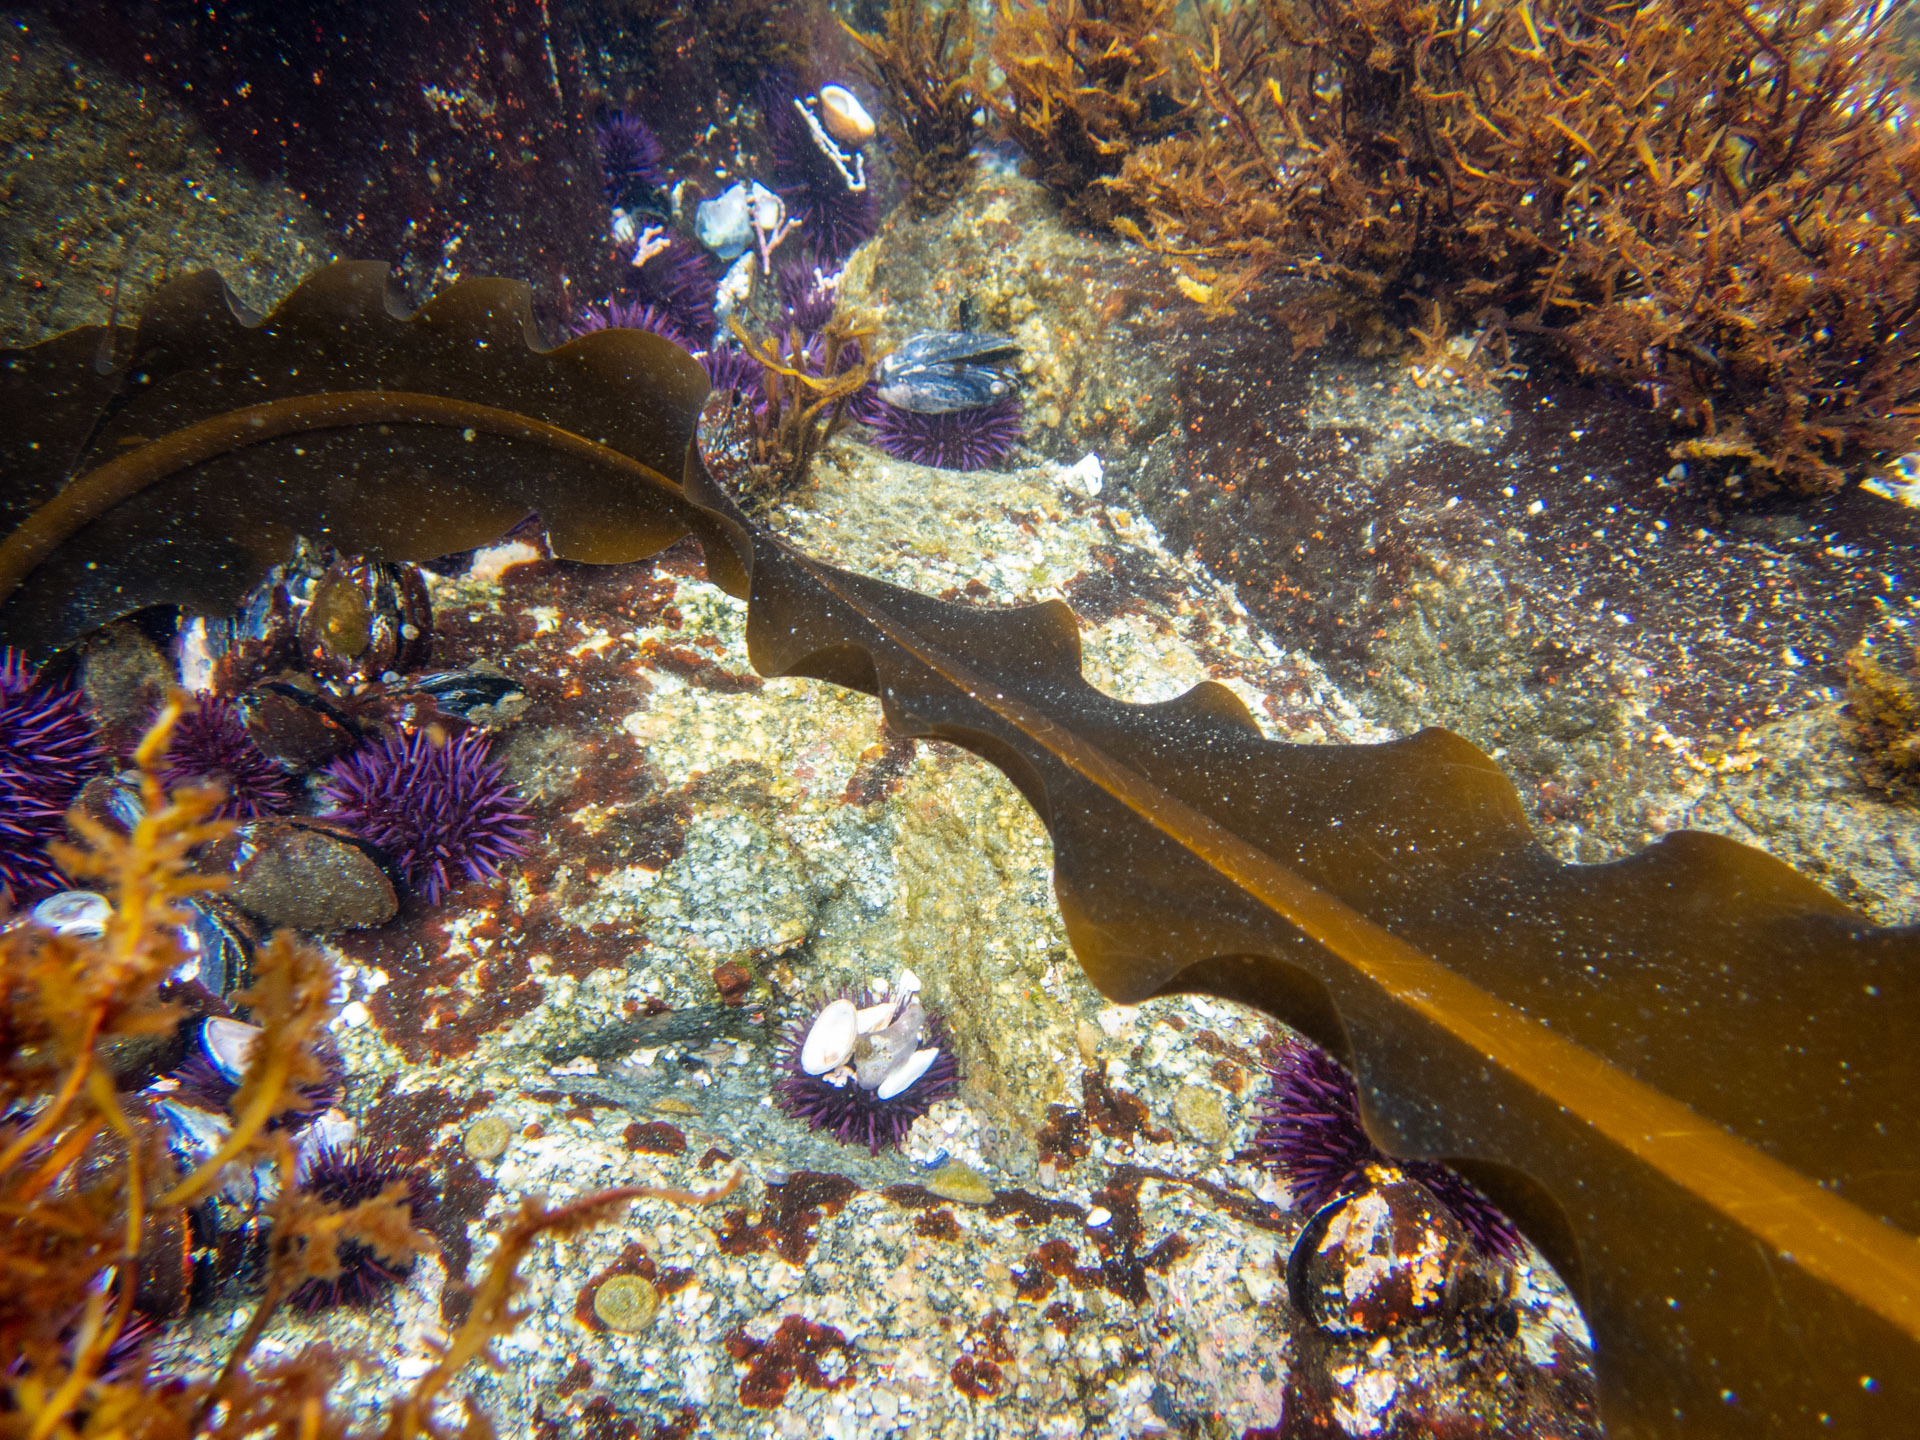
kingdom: Chromista
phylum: Ochrophyta
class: Phaeophyceae
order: Laminariales
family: Alariaceae
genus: Alaria
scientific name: Alaria marginata
